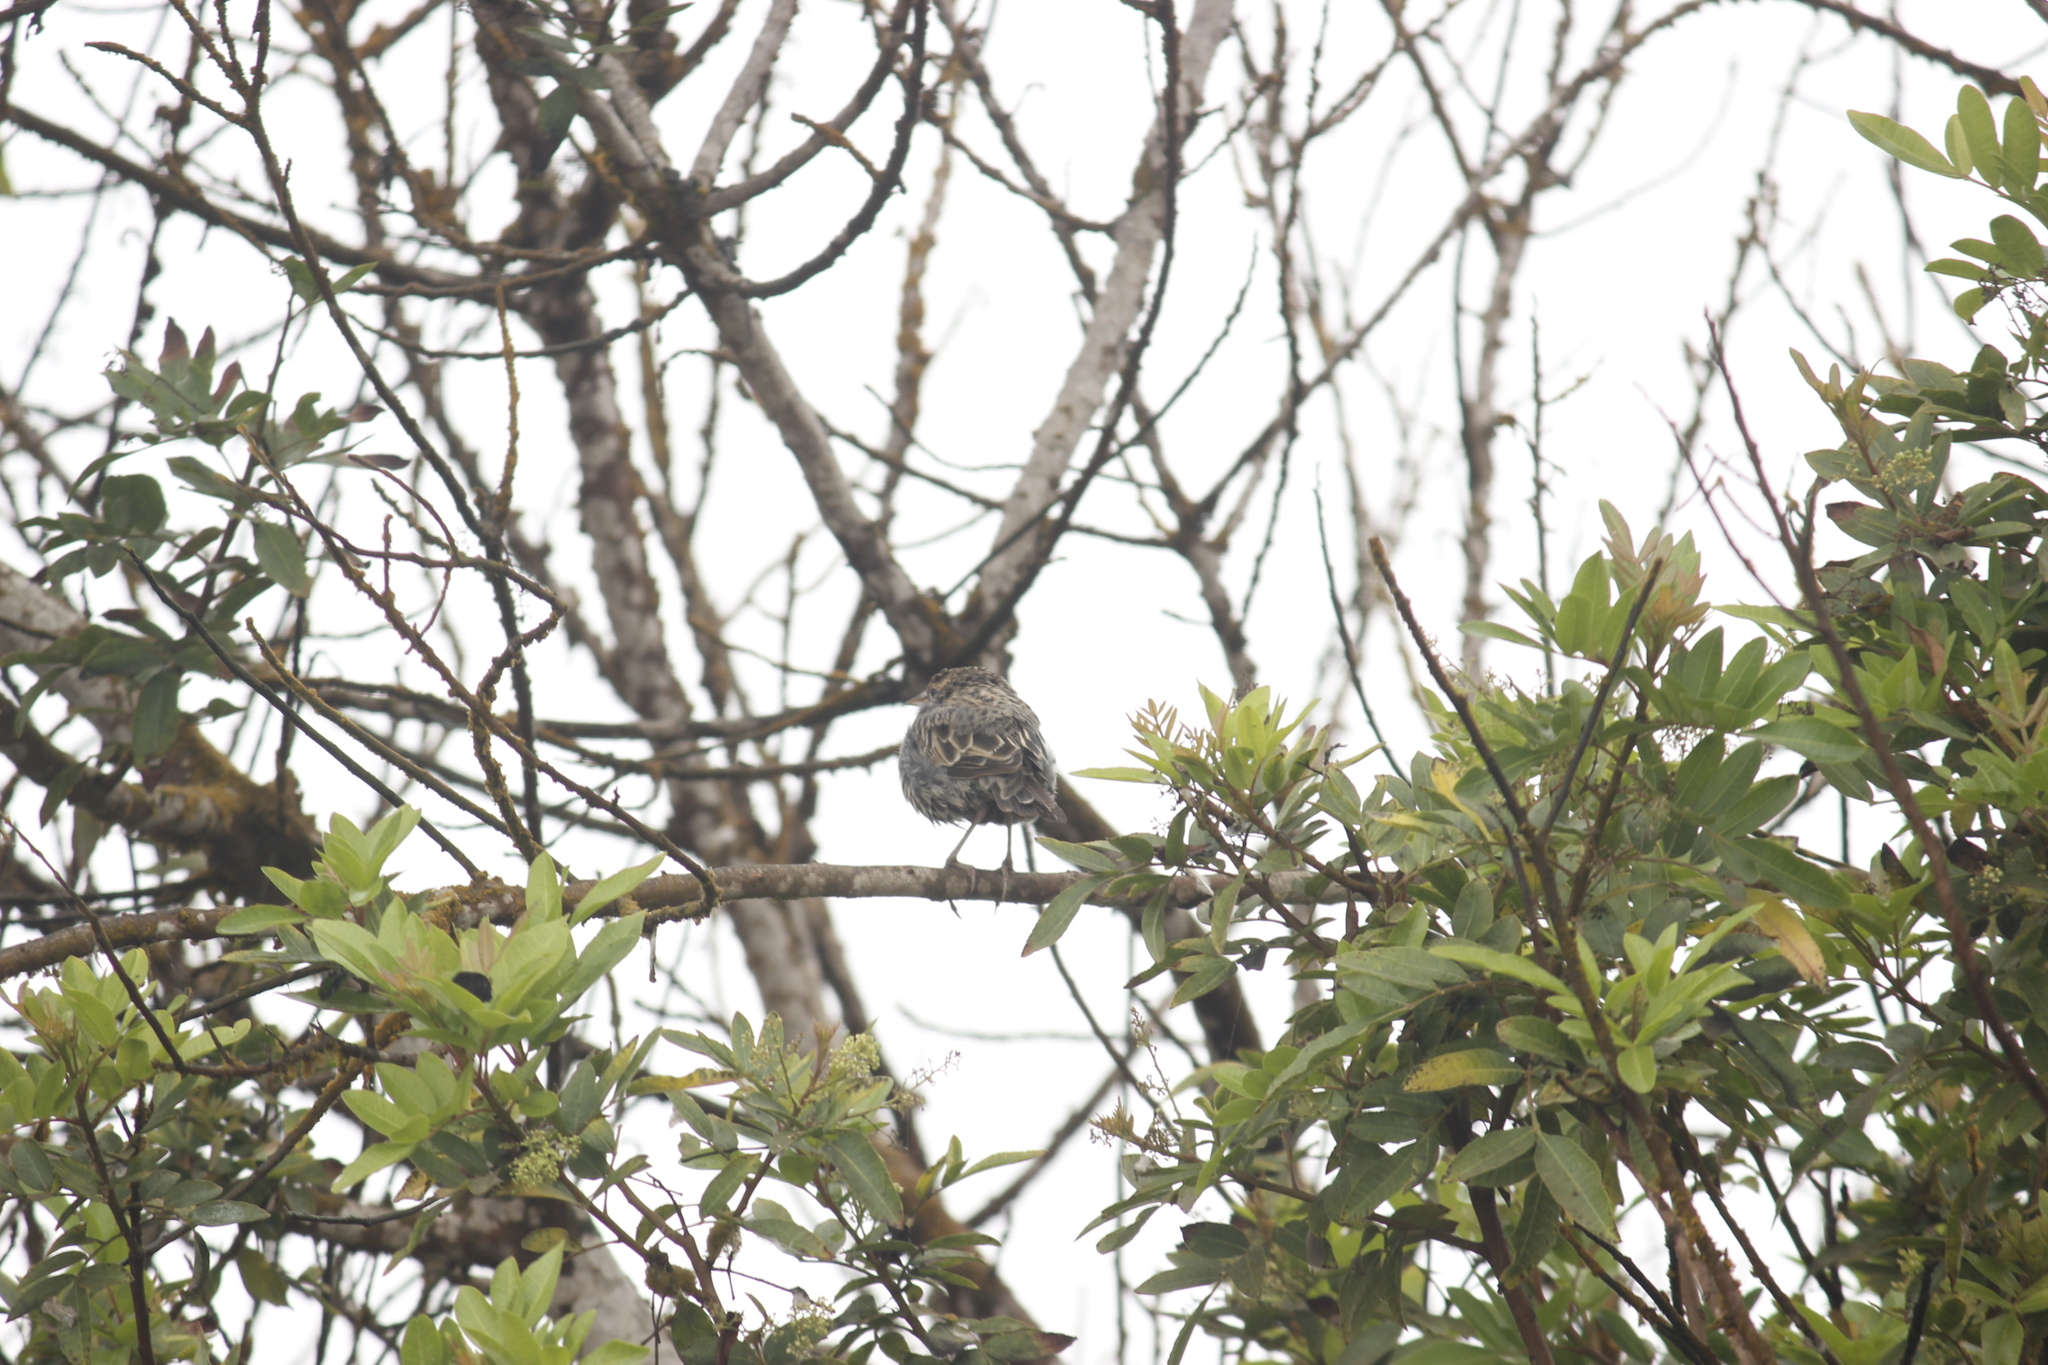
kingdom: Animalia
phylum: Chordata
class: Aves
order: Passeriformes
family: Icteridae
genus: Sturnella
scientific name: Sturnella bellicosa
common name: Peruvian meadowlark
